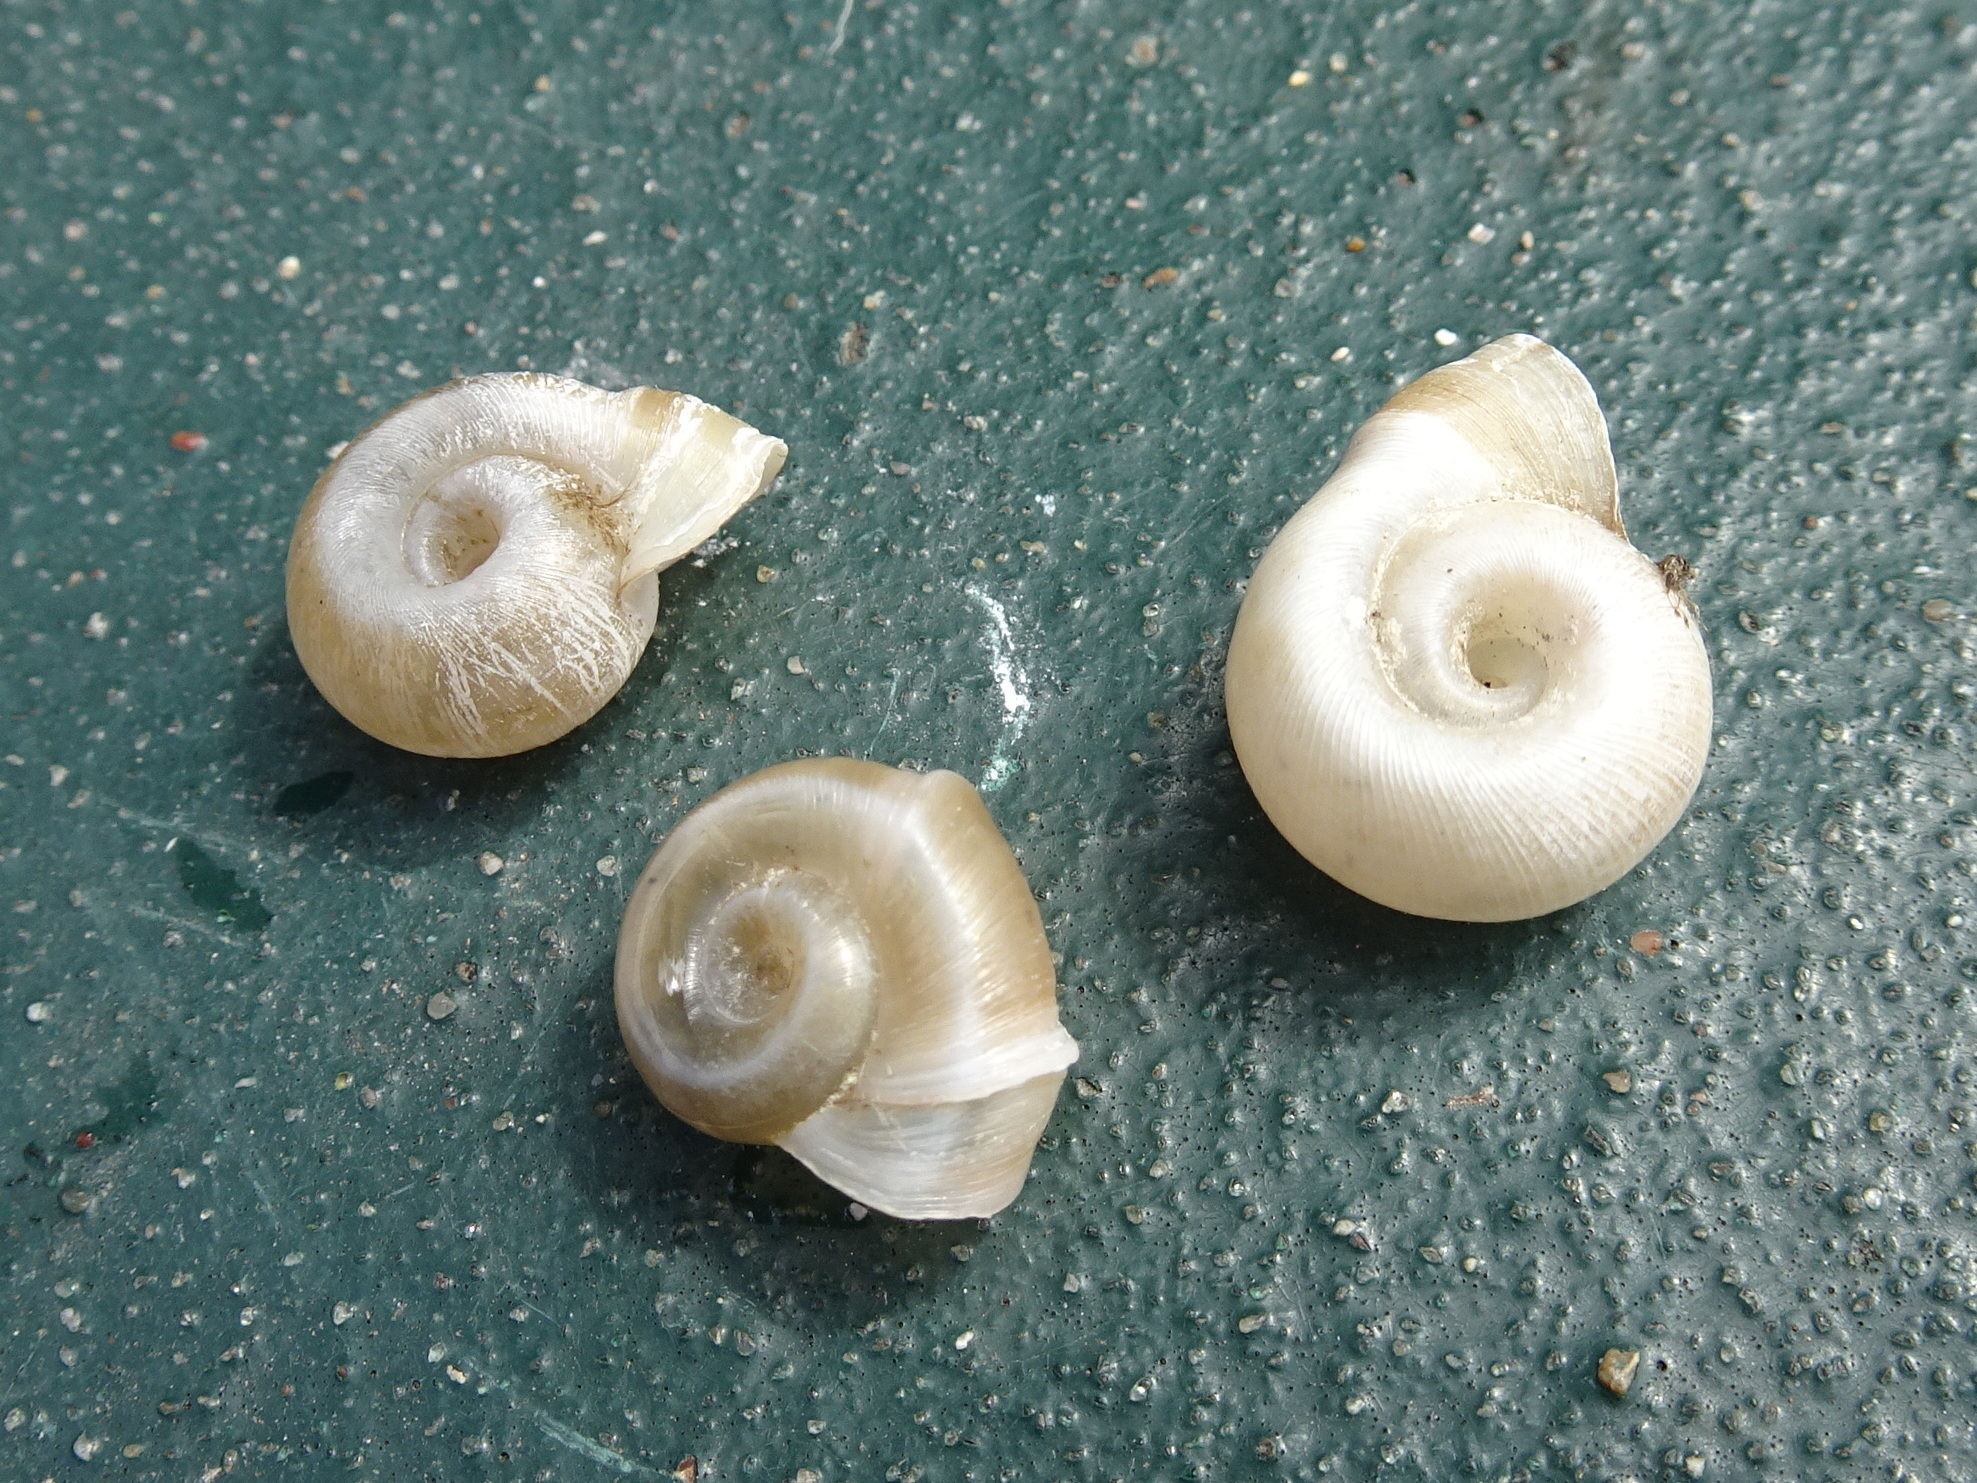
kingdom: Animalia
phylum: Mollusca
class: Gastropoda
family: Planorbidae
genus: Planorbella
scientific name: Planorbella campanulata
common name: Bellmouth ramshorn
